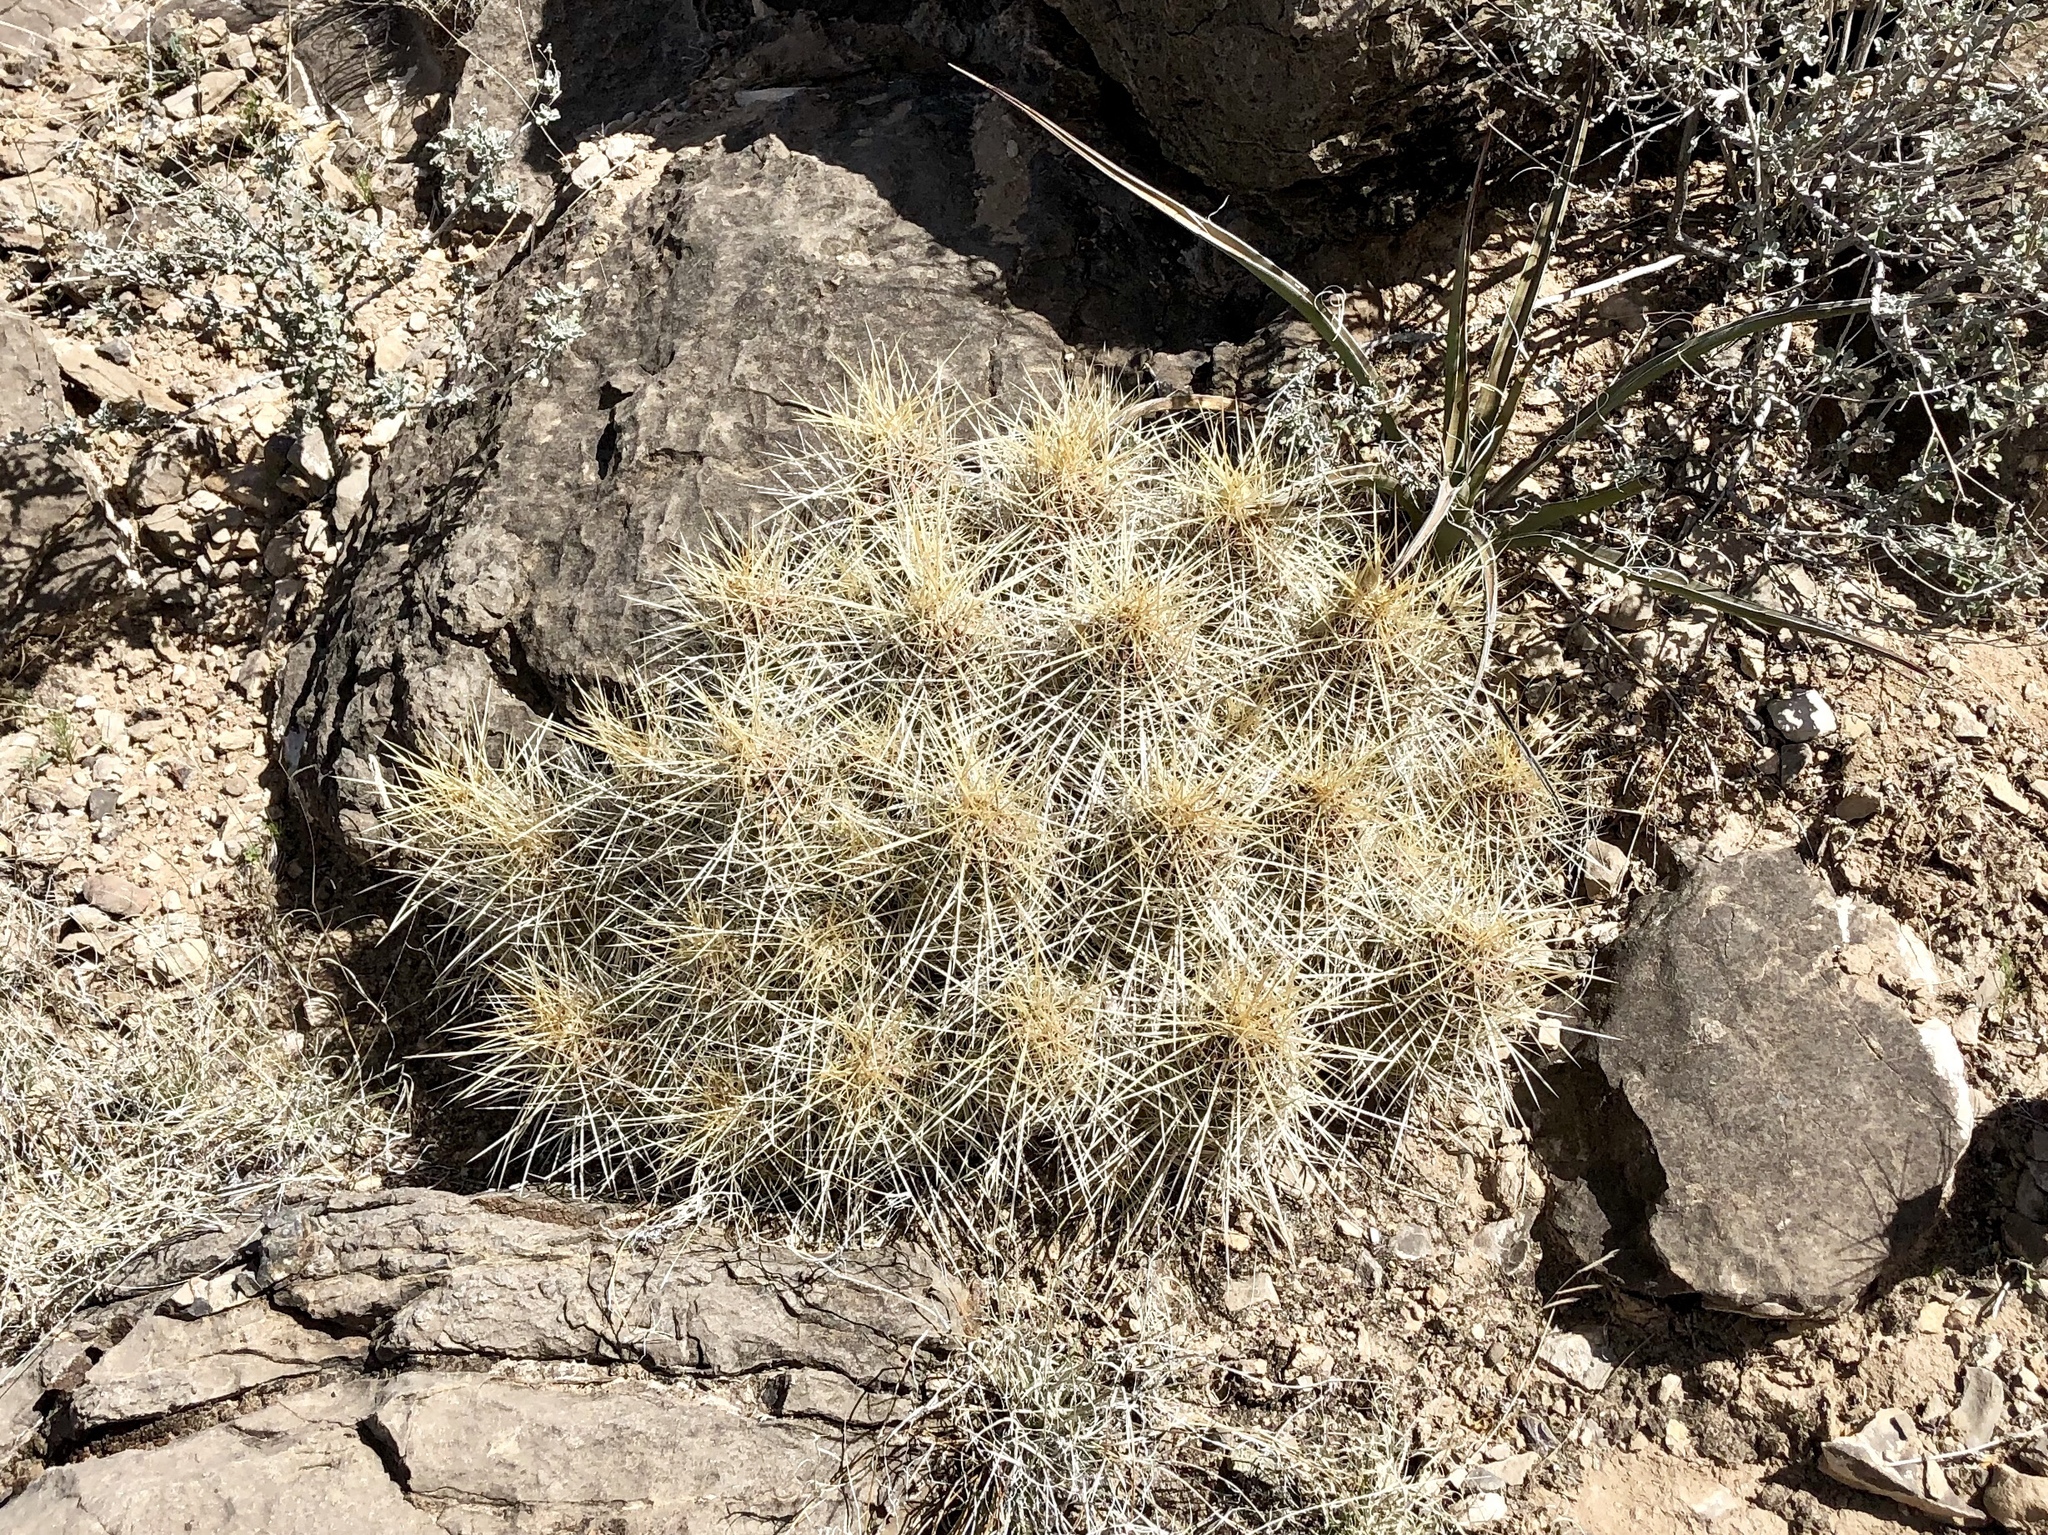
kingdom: Plantae
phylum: Tracheophyta
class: Magnoliopsida
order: Caryophyllales
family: Cactaceae
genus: Echinocereus
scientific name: Echinocereus stramineus
